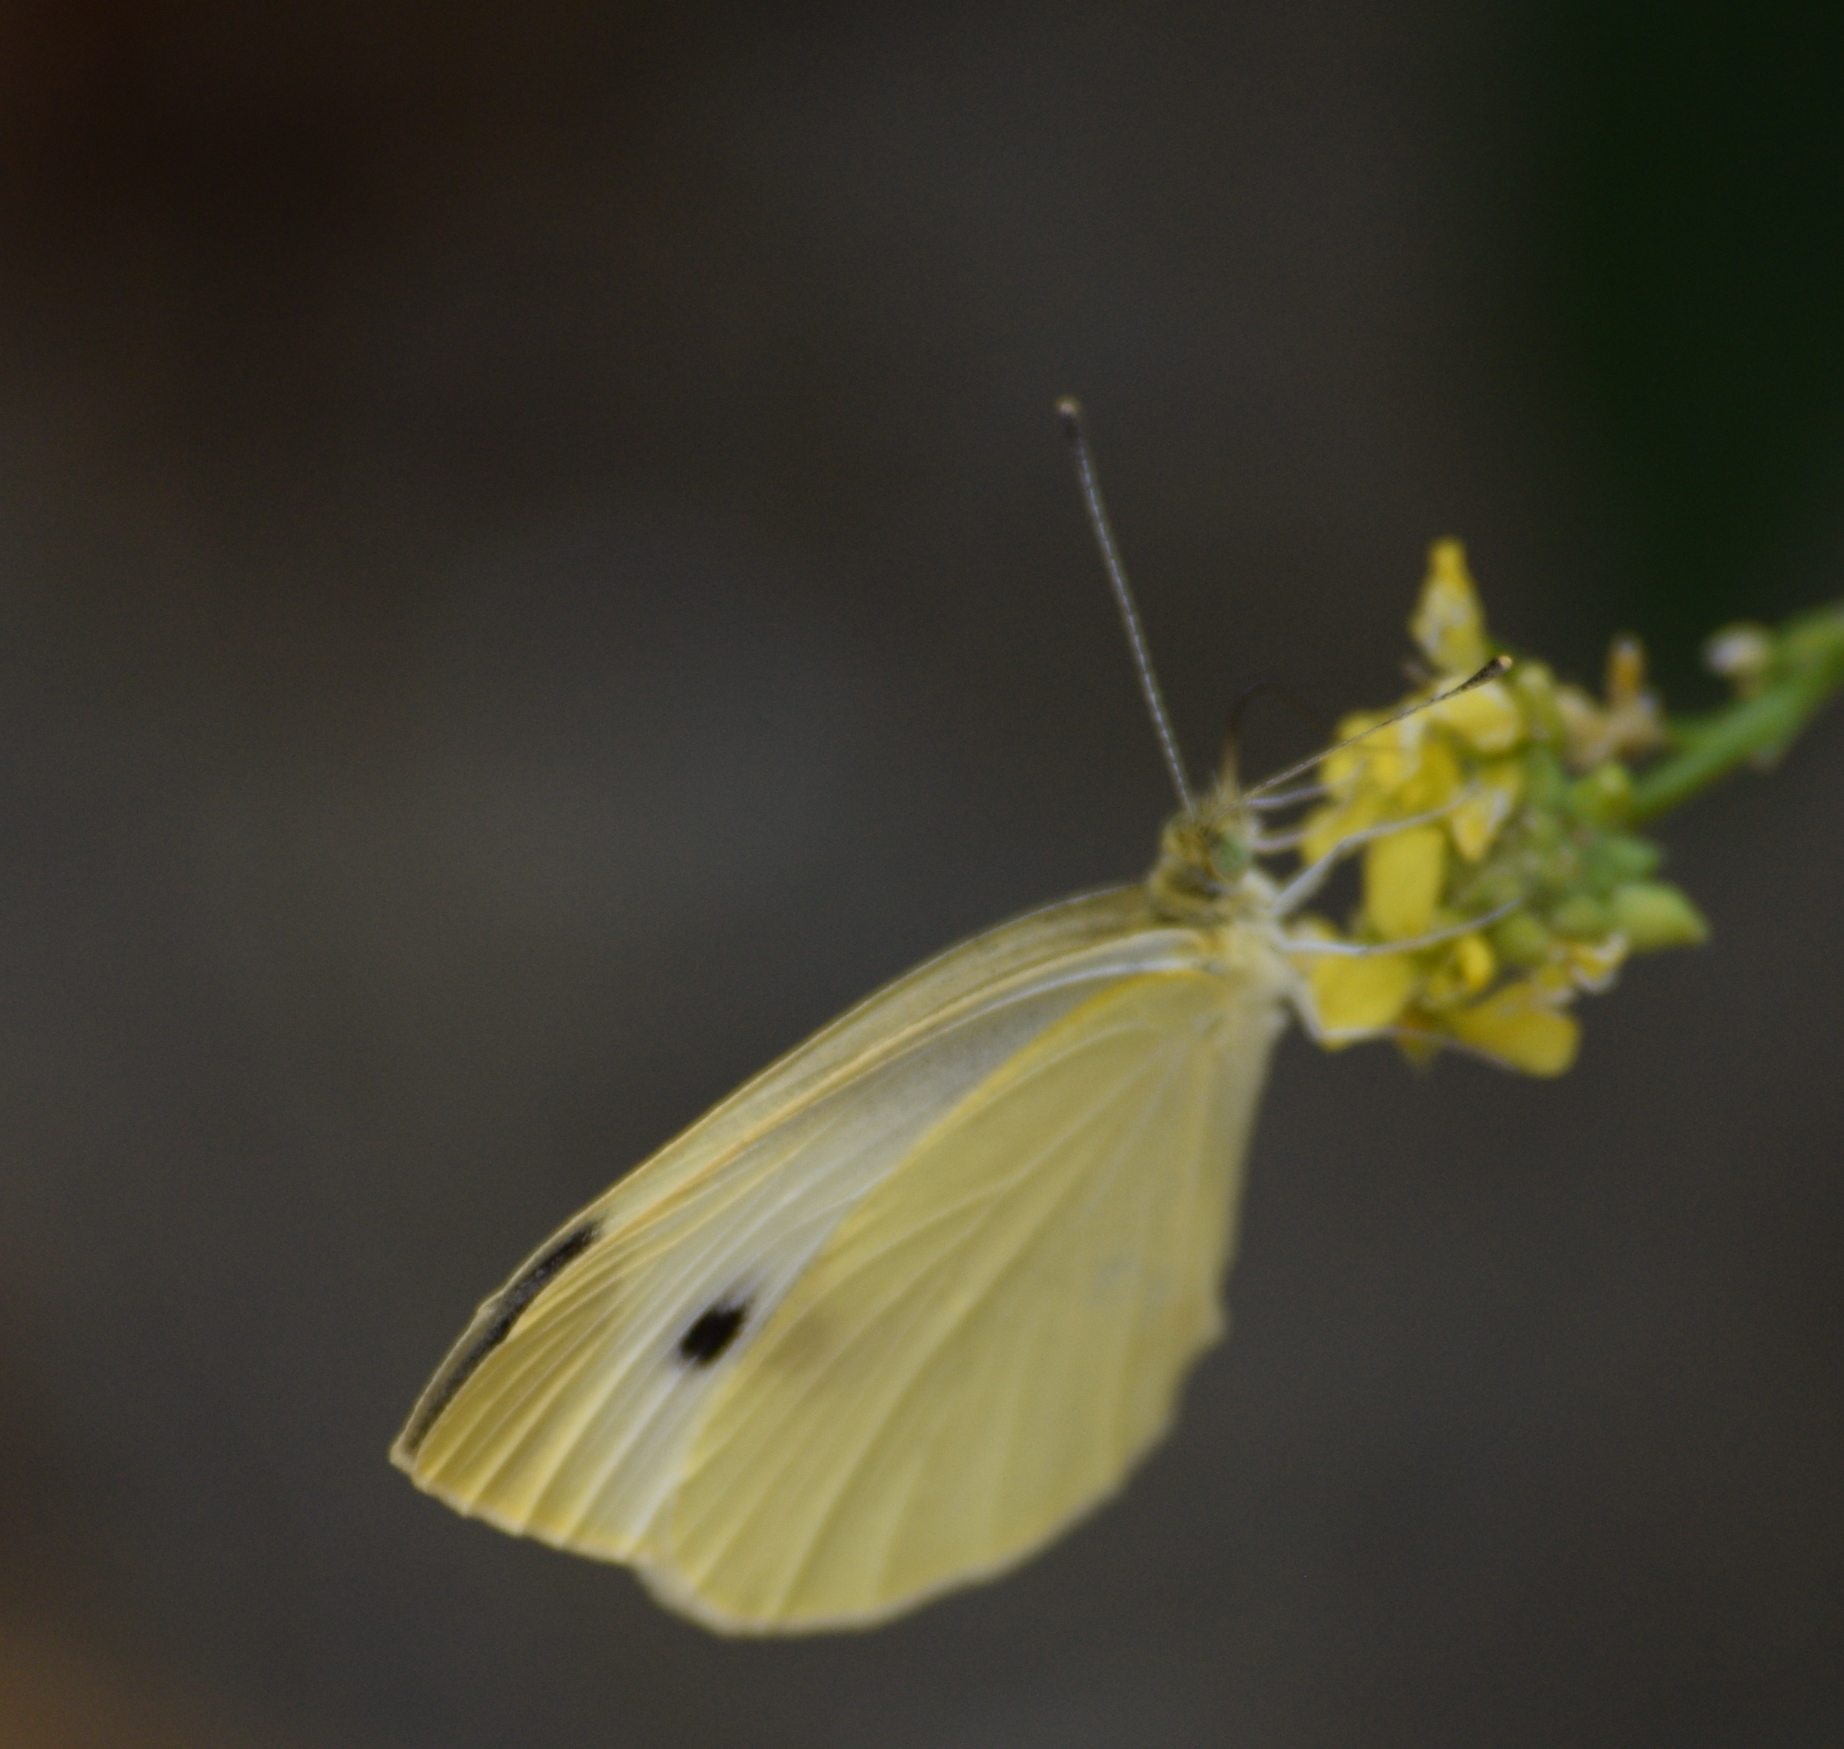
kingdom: Animalia
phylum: Arthropoda
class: Insecta
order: Lepidoptera
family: Pieridae
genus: Pieris
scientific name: Pieris rapae
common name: Small white
